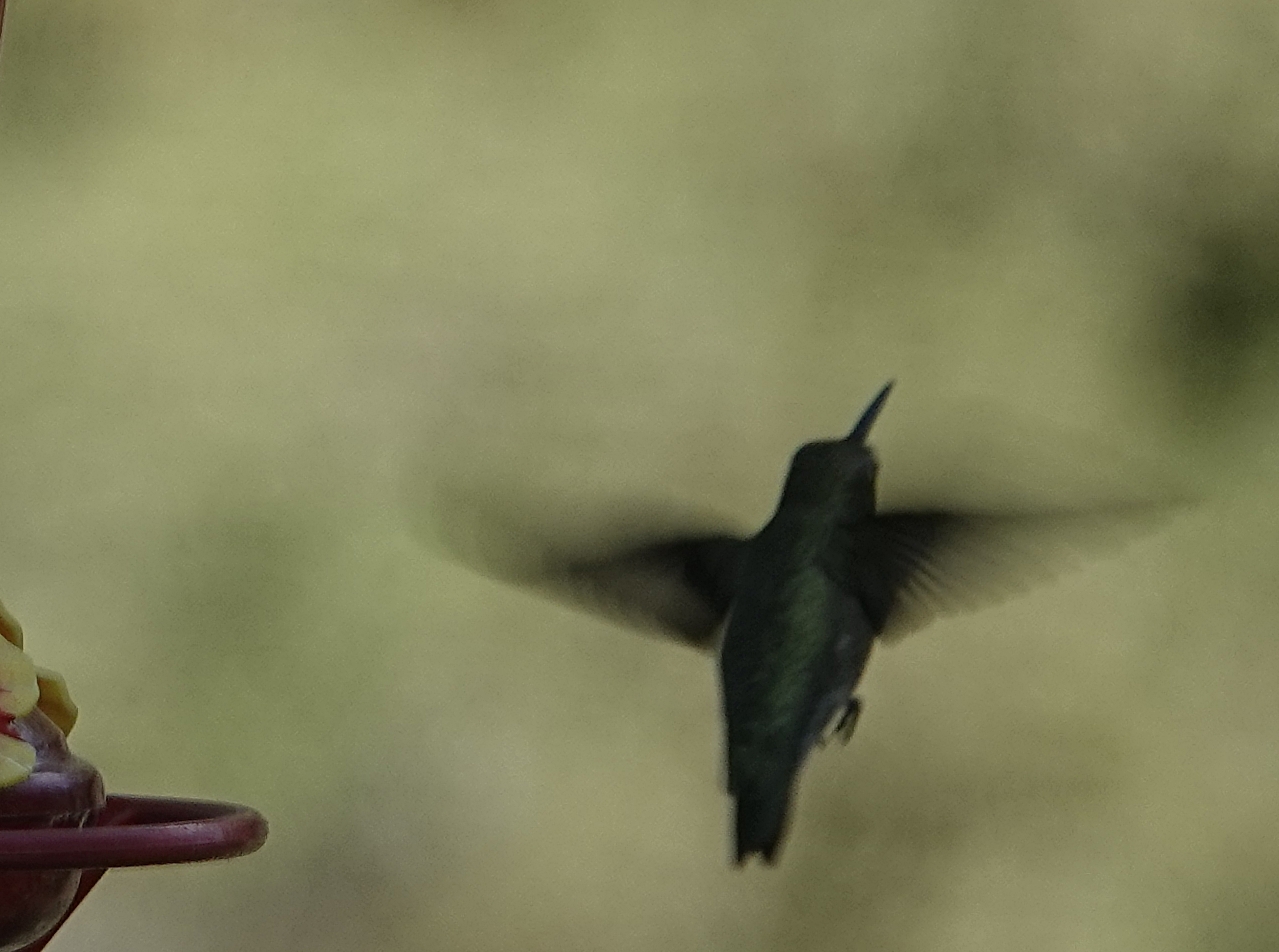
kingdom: Animalia
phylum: Chordata
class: Aves
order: Apodiformes
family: Trochilidae
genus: Archilochus
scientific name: Archilochus alexandri
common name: Black-chinned hummingbird
